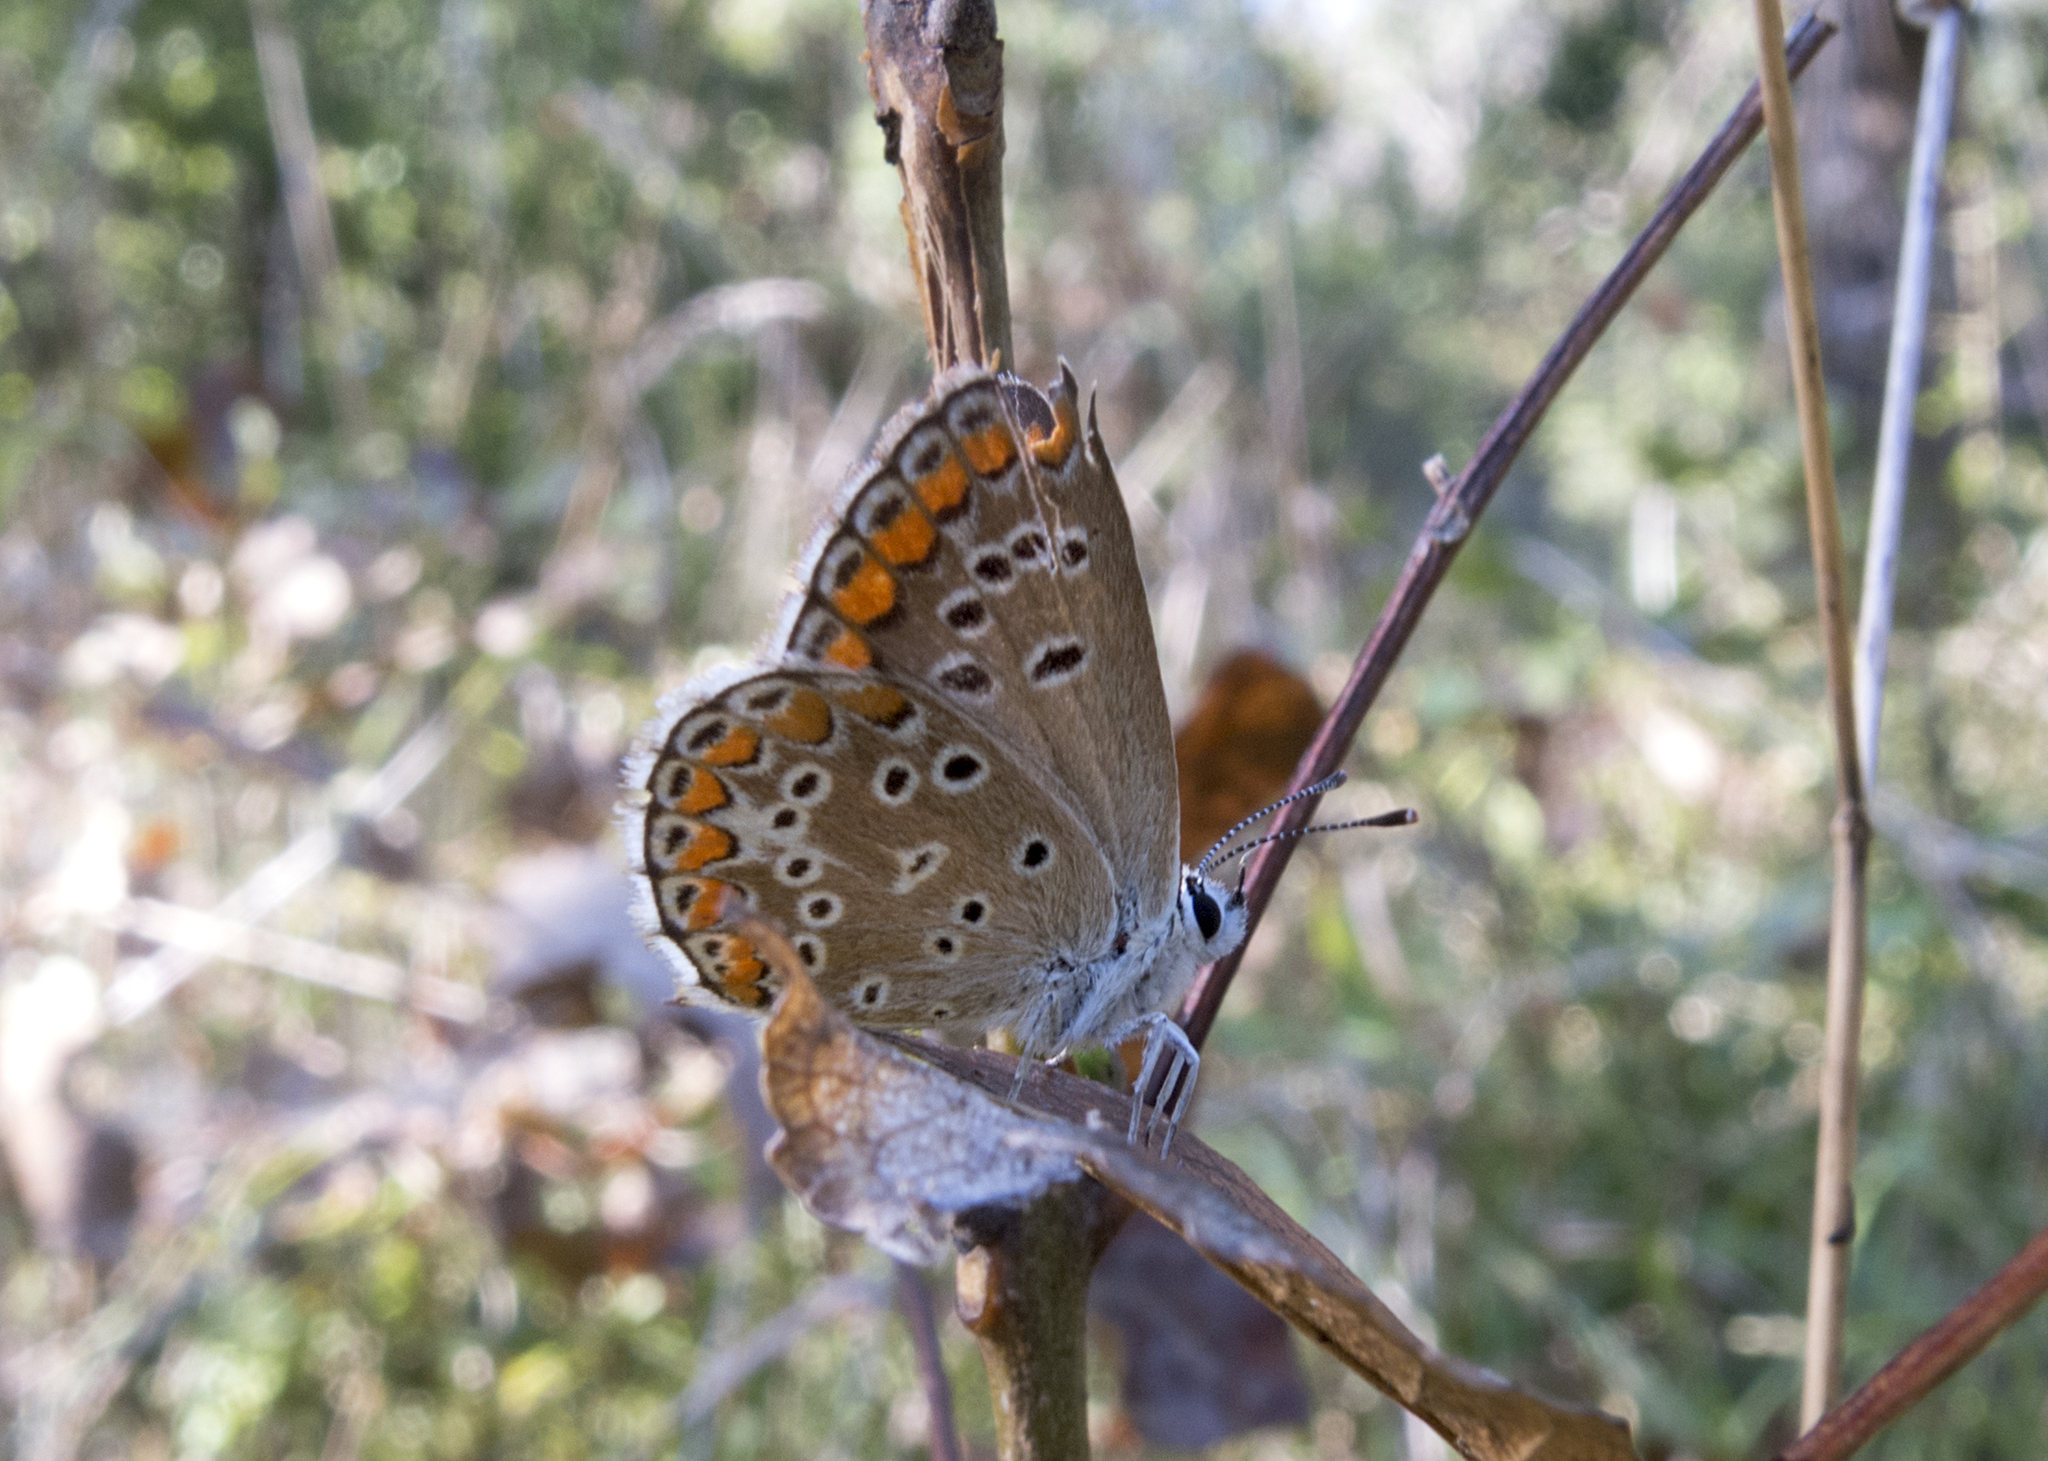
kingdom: Animalia
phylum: Arthropoda
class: Insecta
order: Lepidoptera
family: Lycaenidae
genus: Aricia
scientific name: Aricia agestis
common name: Brown argus
